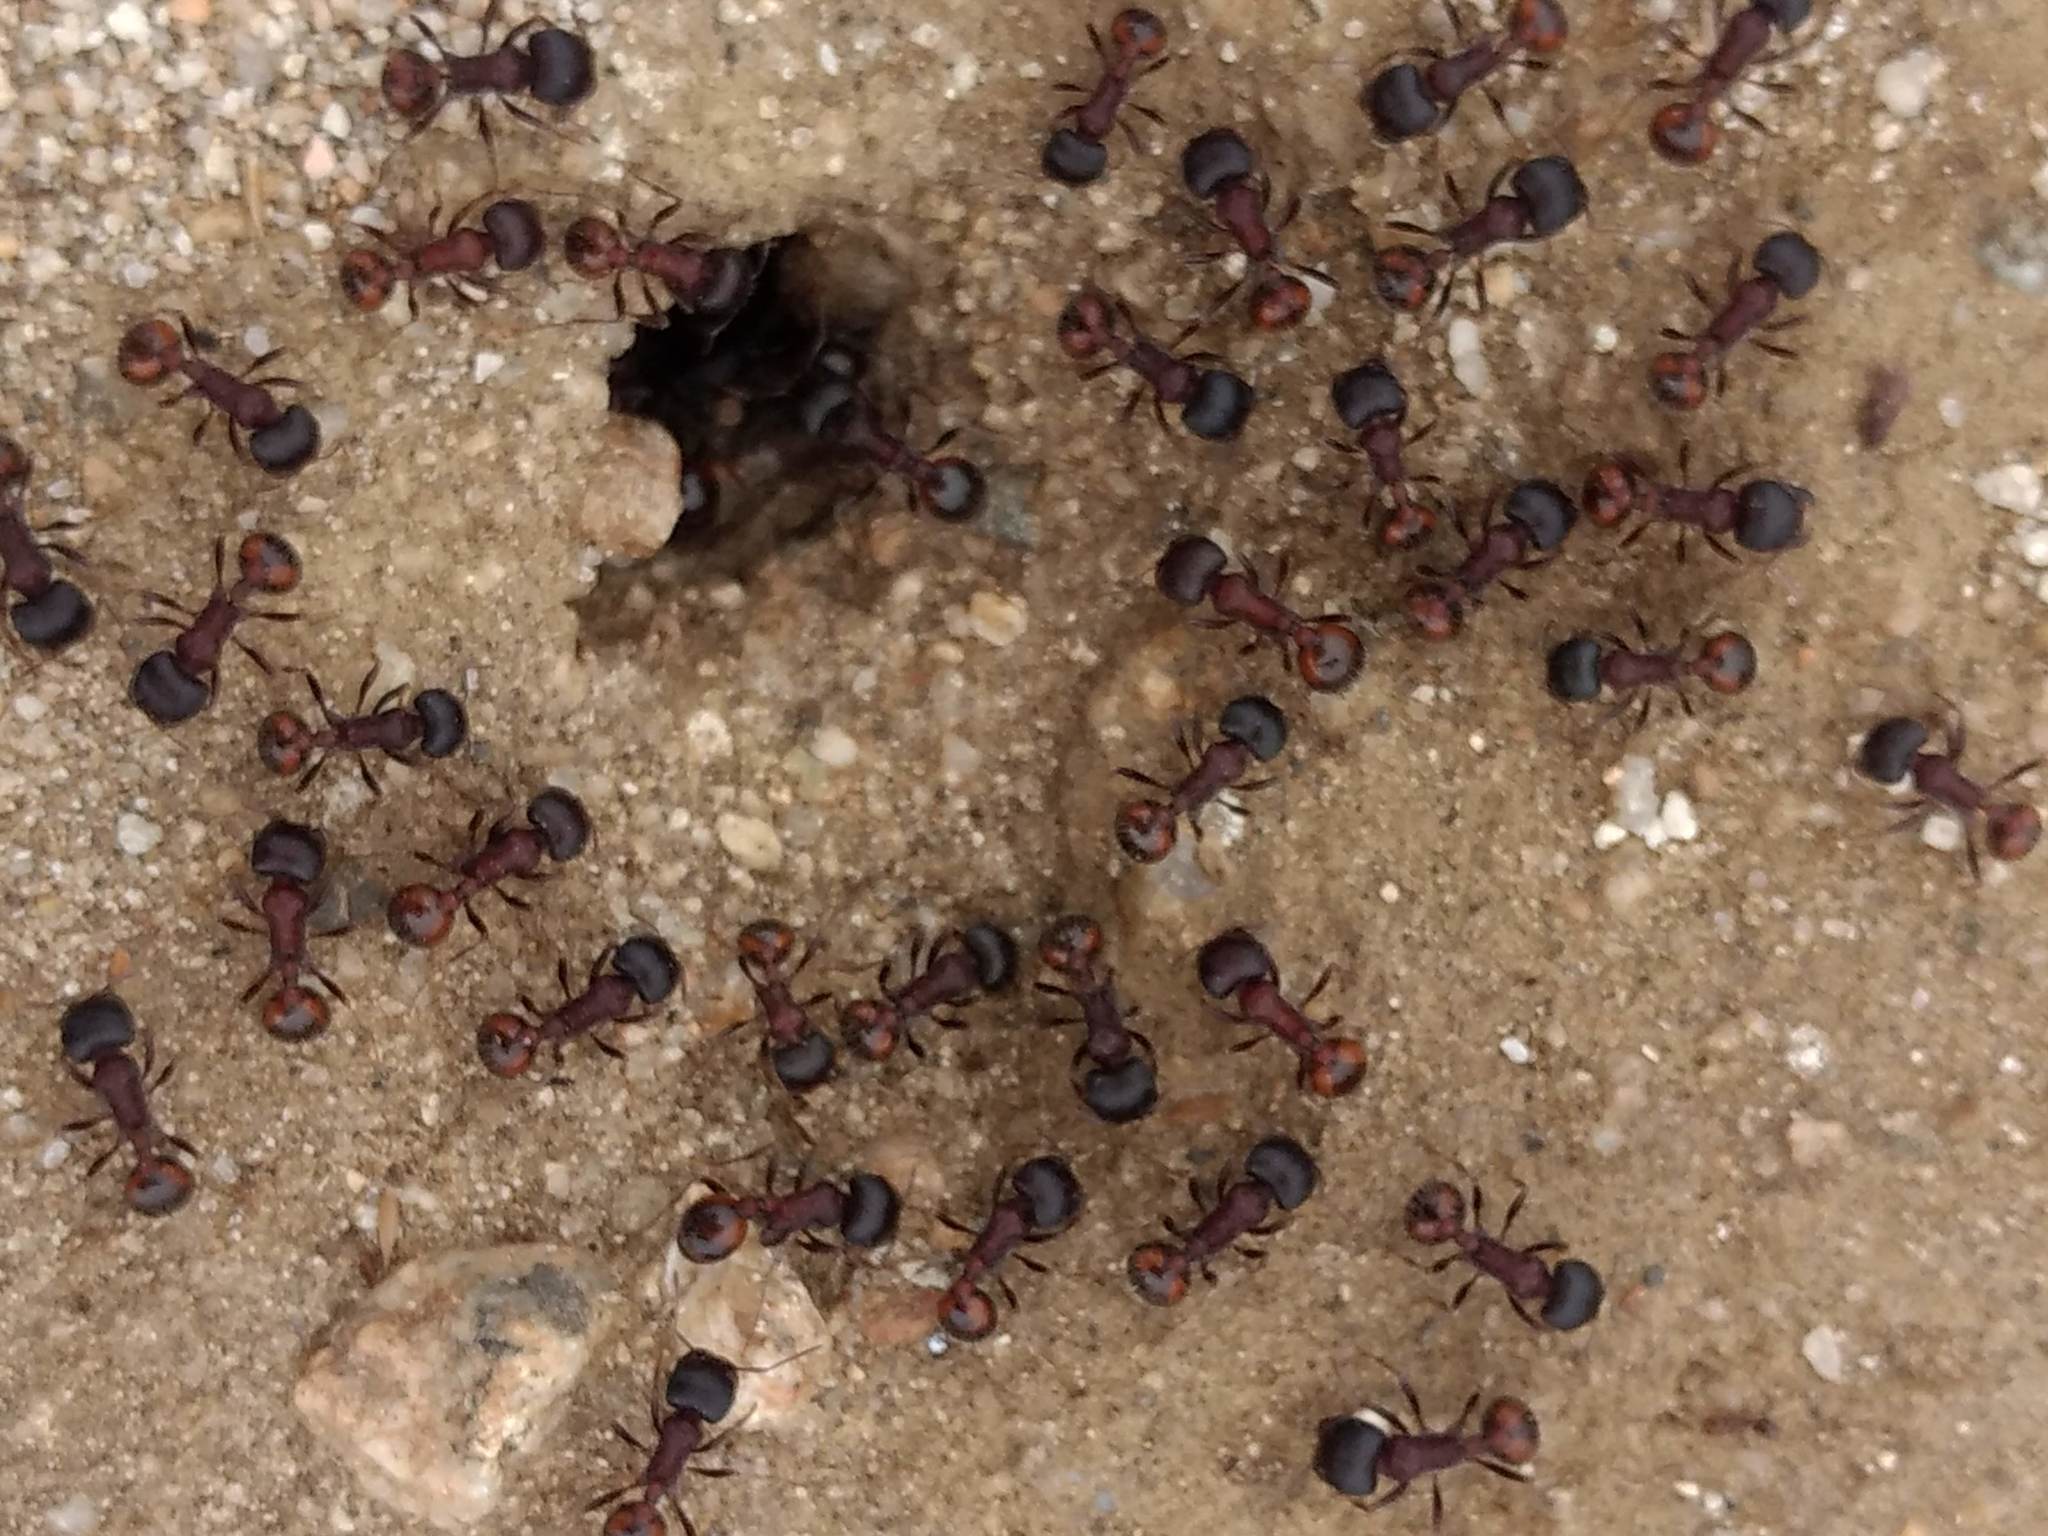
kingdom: Animalia
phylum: Arthropoda
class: Insecta
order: Hymenoptera
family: Formicidae
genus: Pogonomyrmex
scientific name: Pogonomyrmex rugosus
